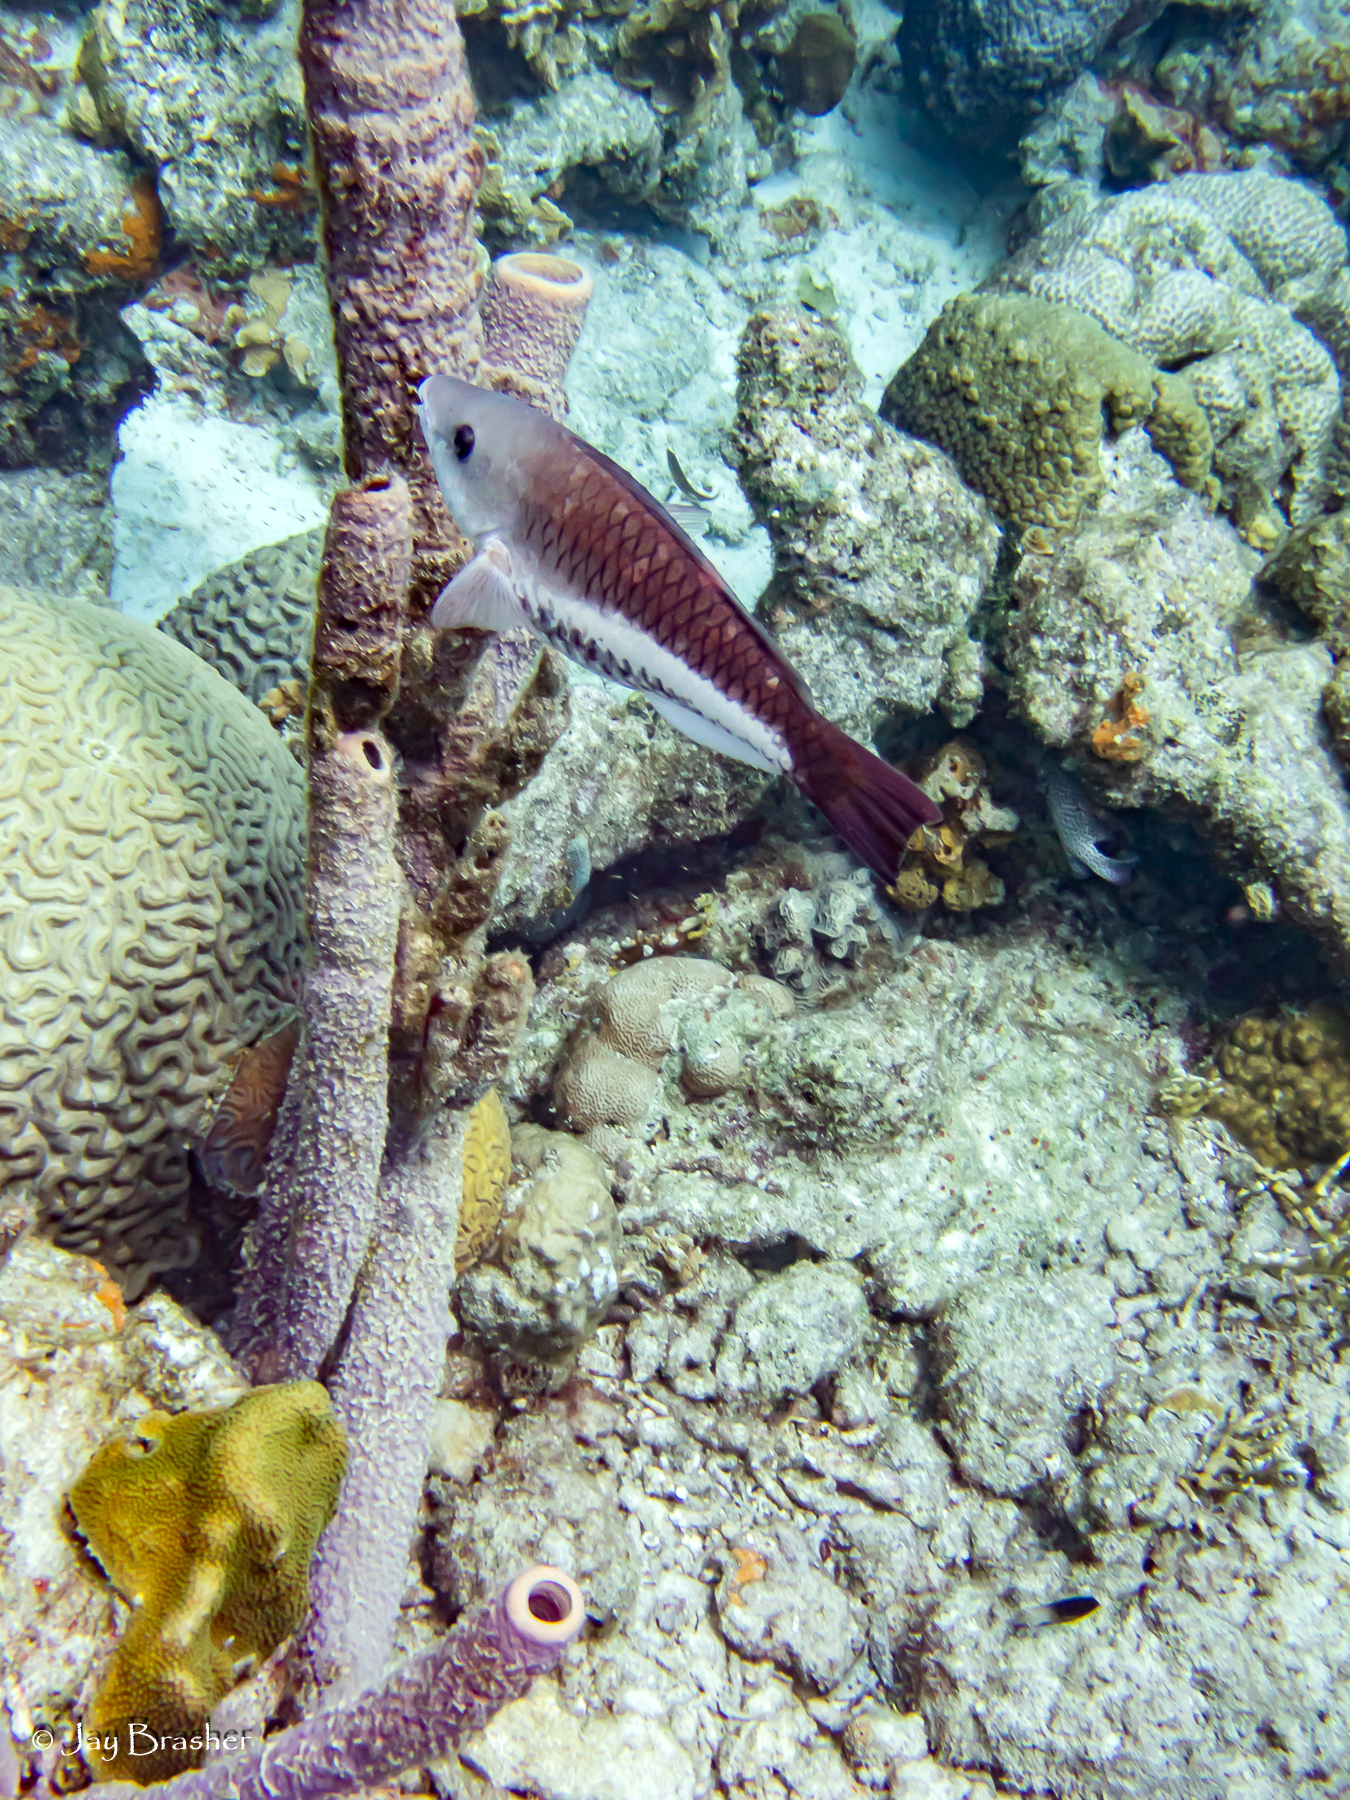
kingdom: Animalia
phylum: Cnidaria
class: Anthozoa
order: Scleractinia
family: Faviidae
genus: Diploria
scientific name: Diploria labyrinthiformis
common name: Grooved brain coral
